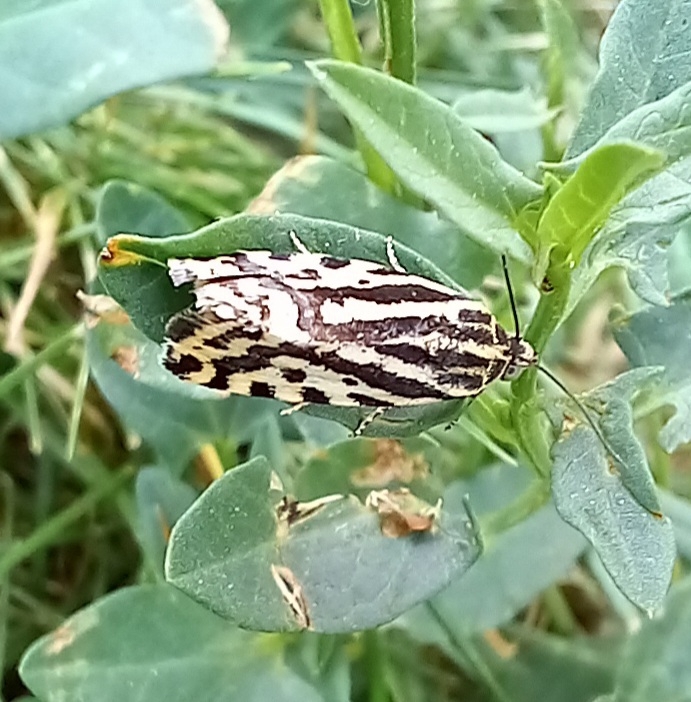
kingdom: Animalia
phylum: Arthropoda
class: Insecta
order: Lepidoptera
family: Noctuidae
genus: Acontia
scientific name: Acontia trabealis
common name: Spotted sulphur
